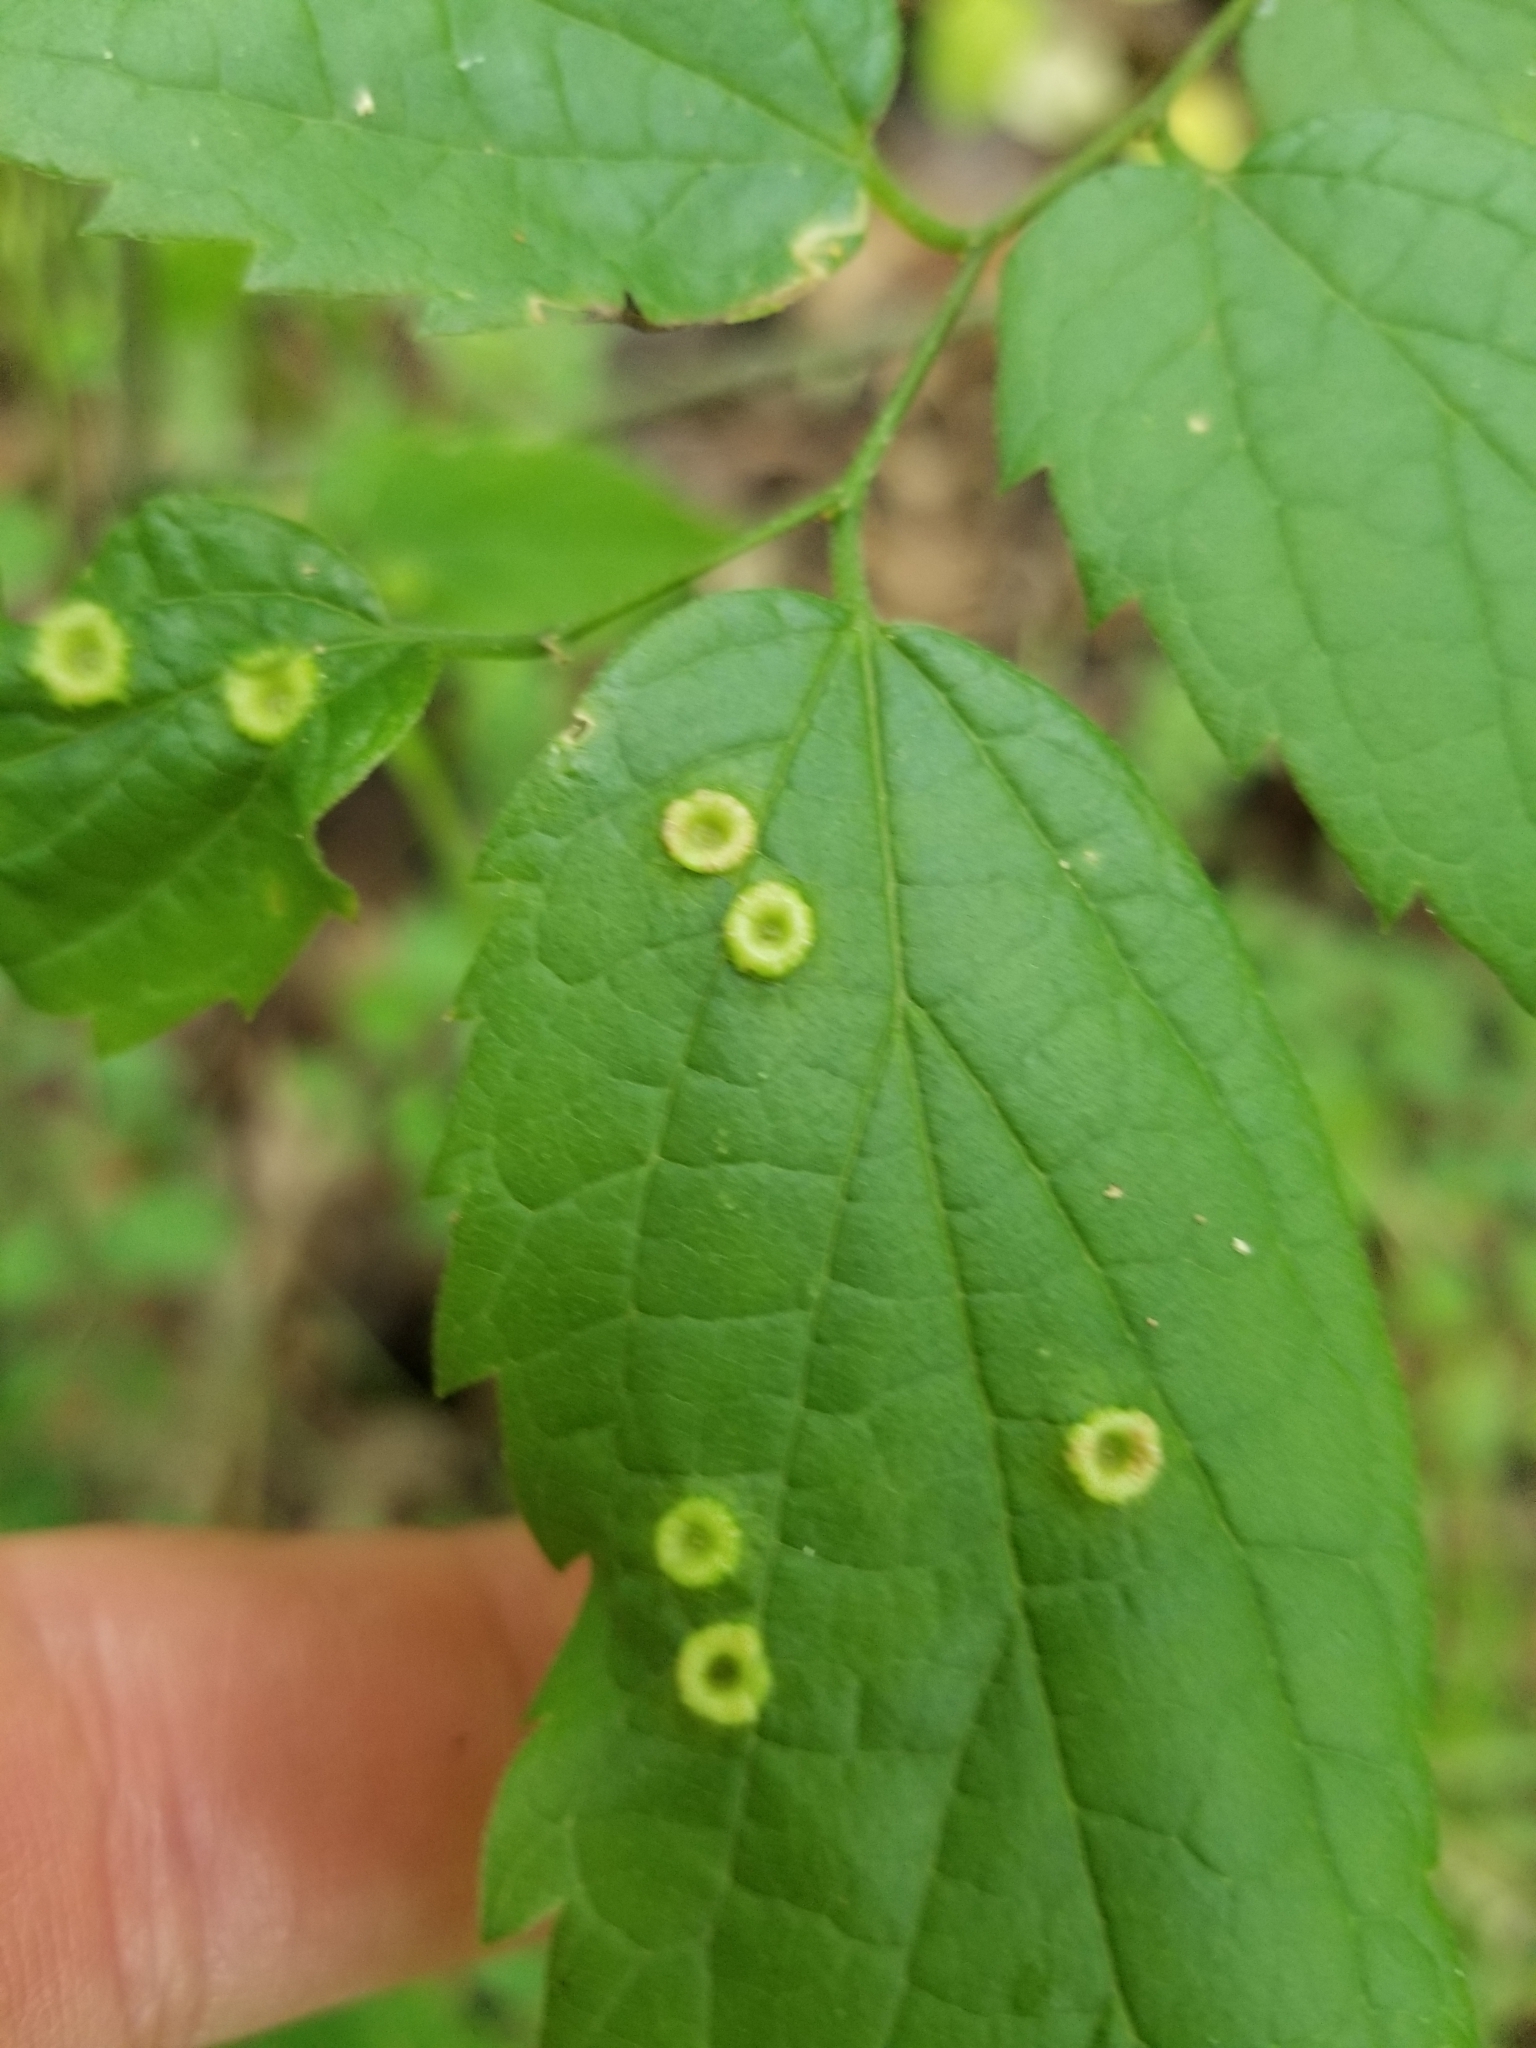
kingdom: Animalia
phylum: Arthropoda
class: Insecta
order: Hemiptera
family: Aphalaridae
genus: Pachypsylla
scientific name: Pachypsylla celtidismamma
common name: Hackberry nipplegall psyllid
